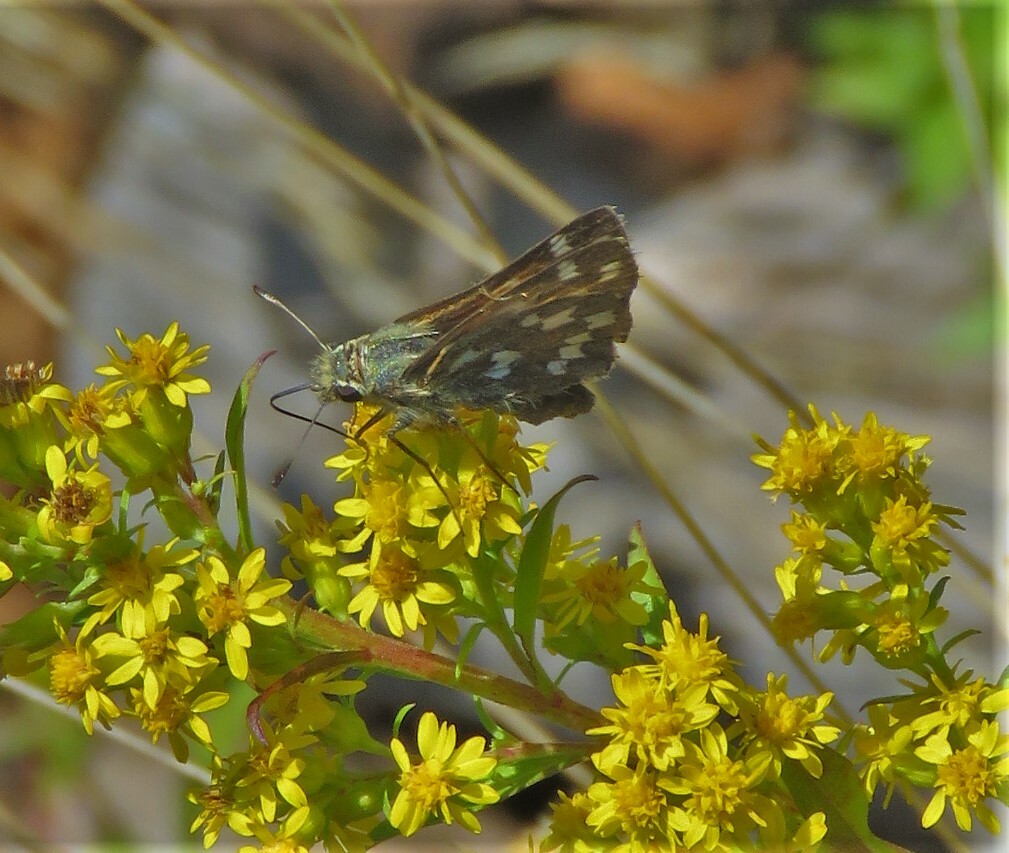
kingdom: Animalia
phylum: Arthropoda
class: Insecta
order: Lepidoptera
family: Hesperiidae
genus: Hesperia
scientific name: Hesperia comma
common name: Common branded skipper
